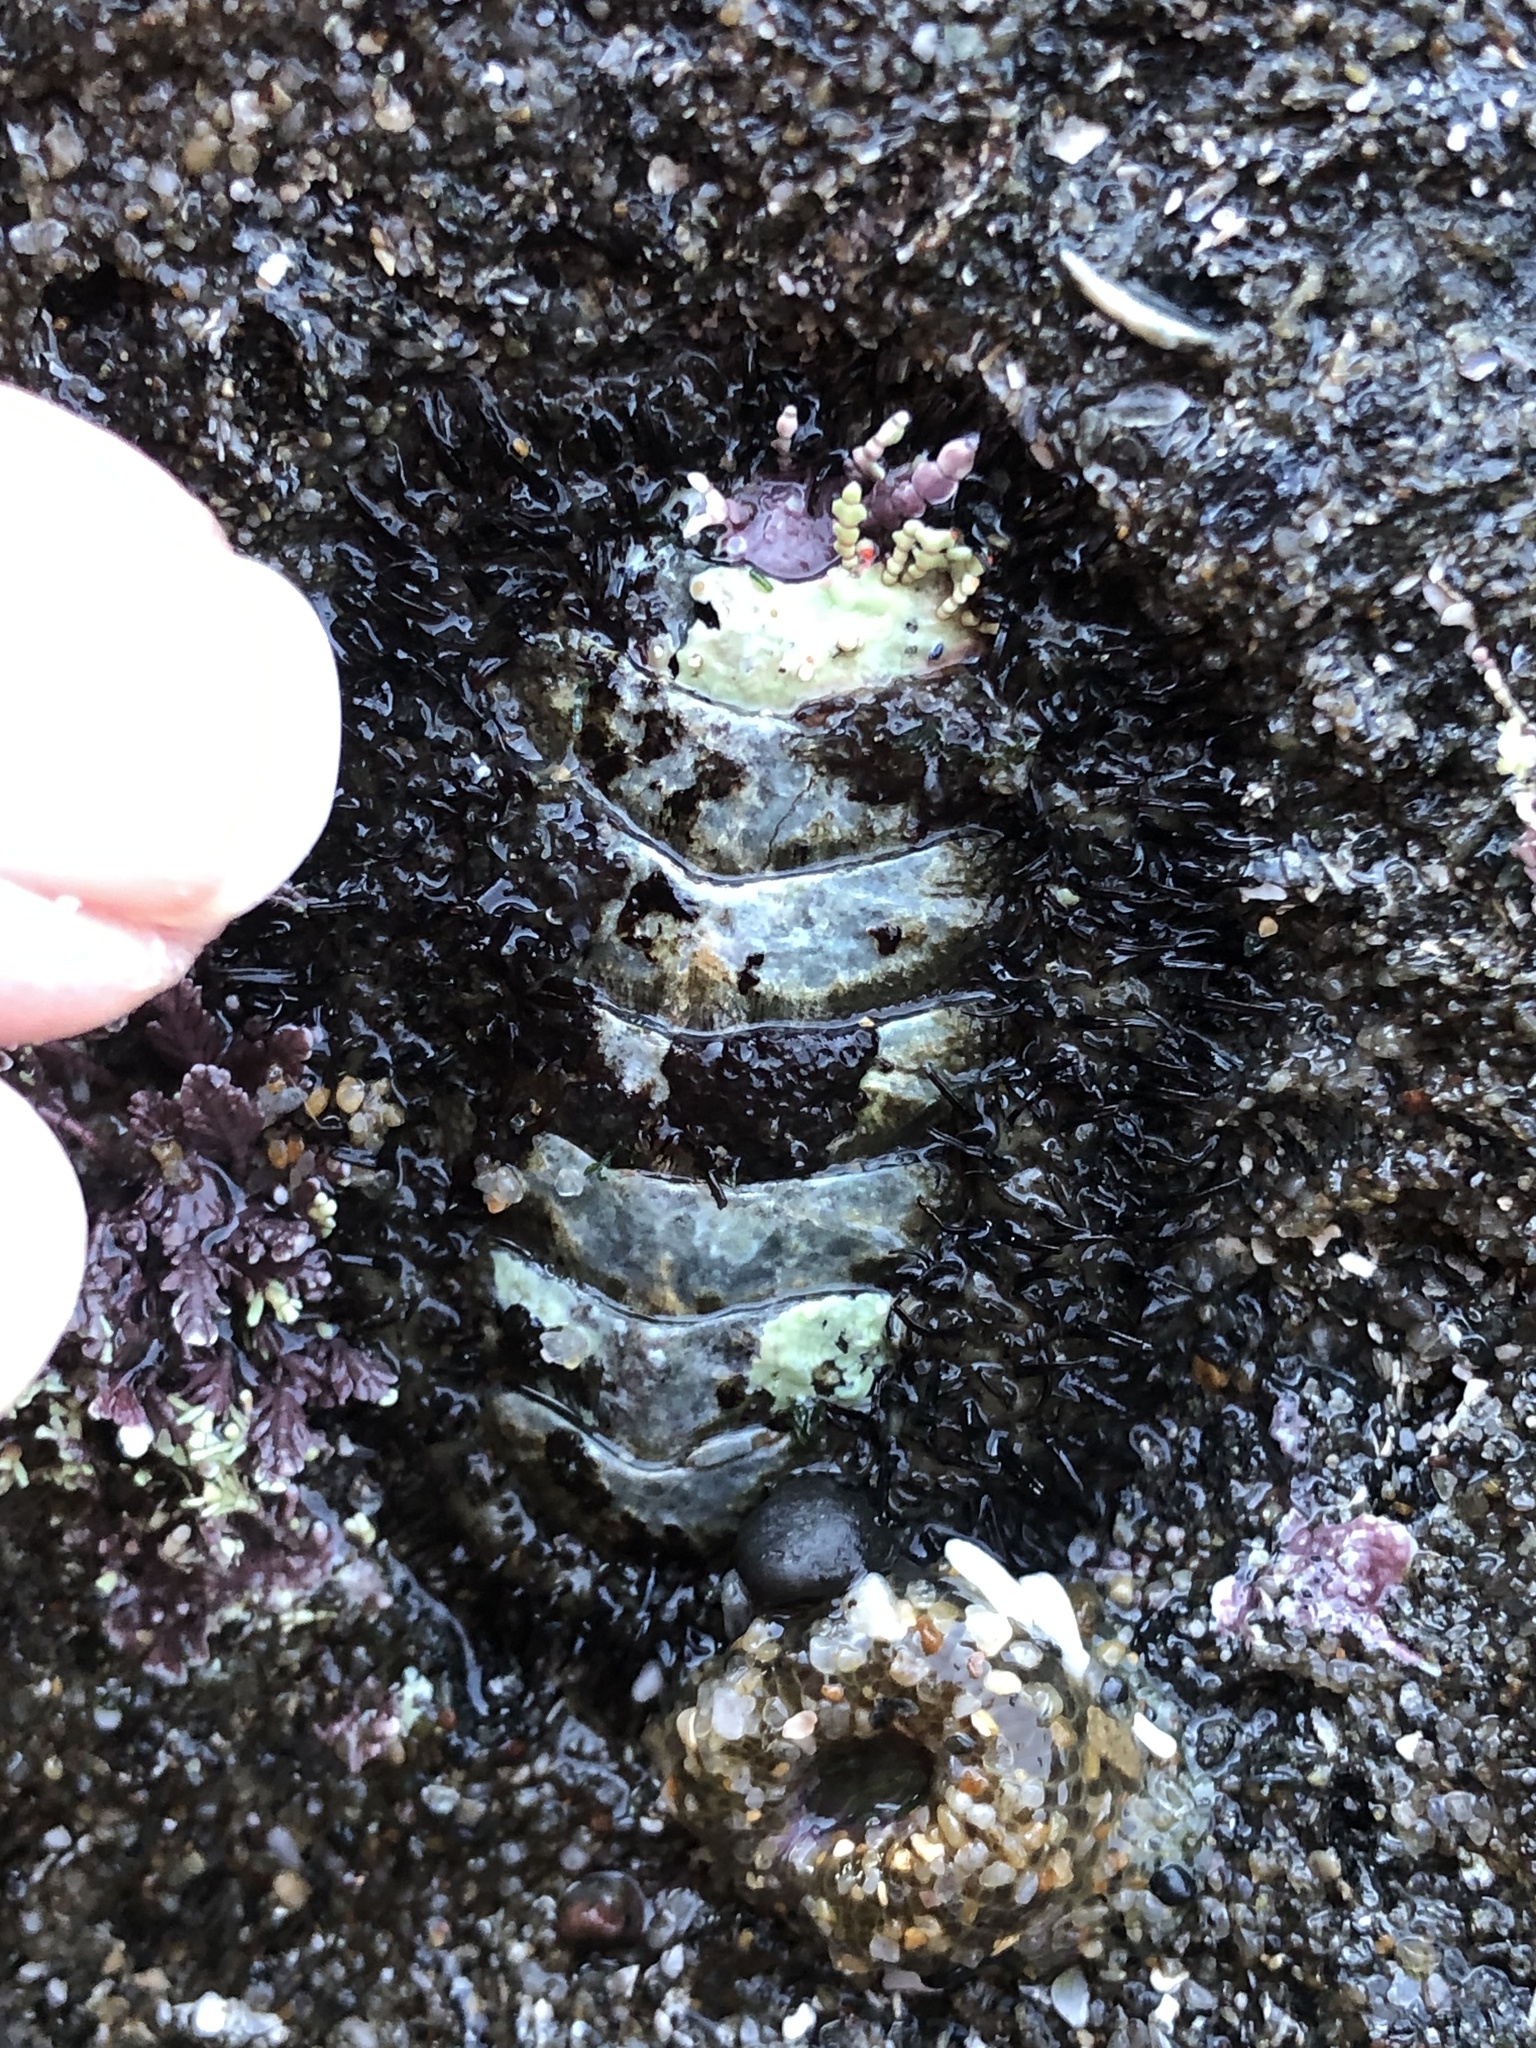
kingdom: Animalia
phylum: Mollusca
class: Polyplacophora
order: Chitonida
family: Mopaliidae
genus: Mopalia
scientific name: Mopalia muscosa
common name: Mossy chiton
